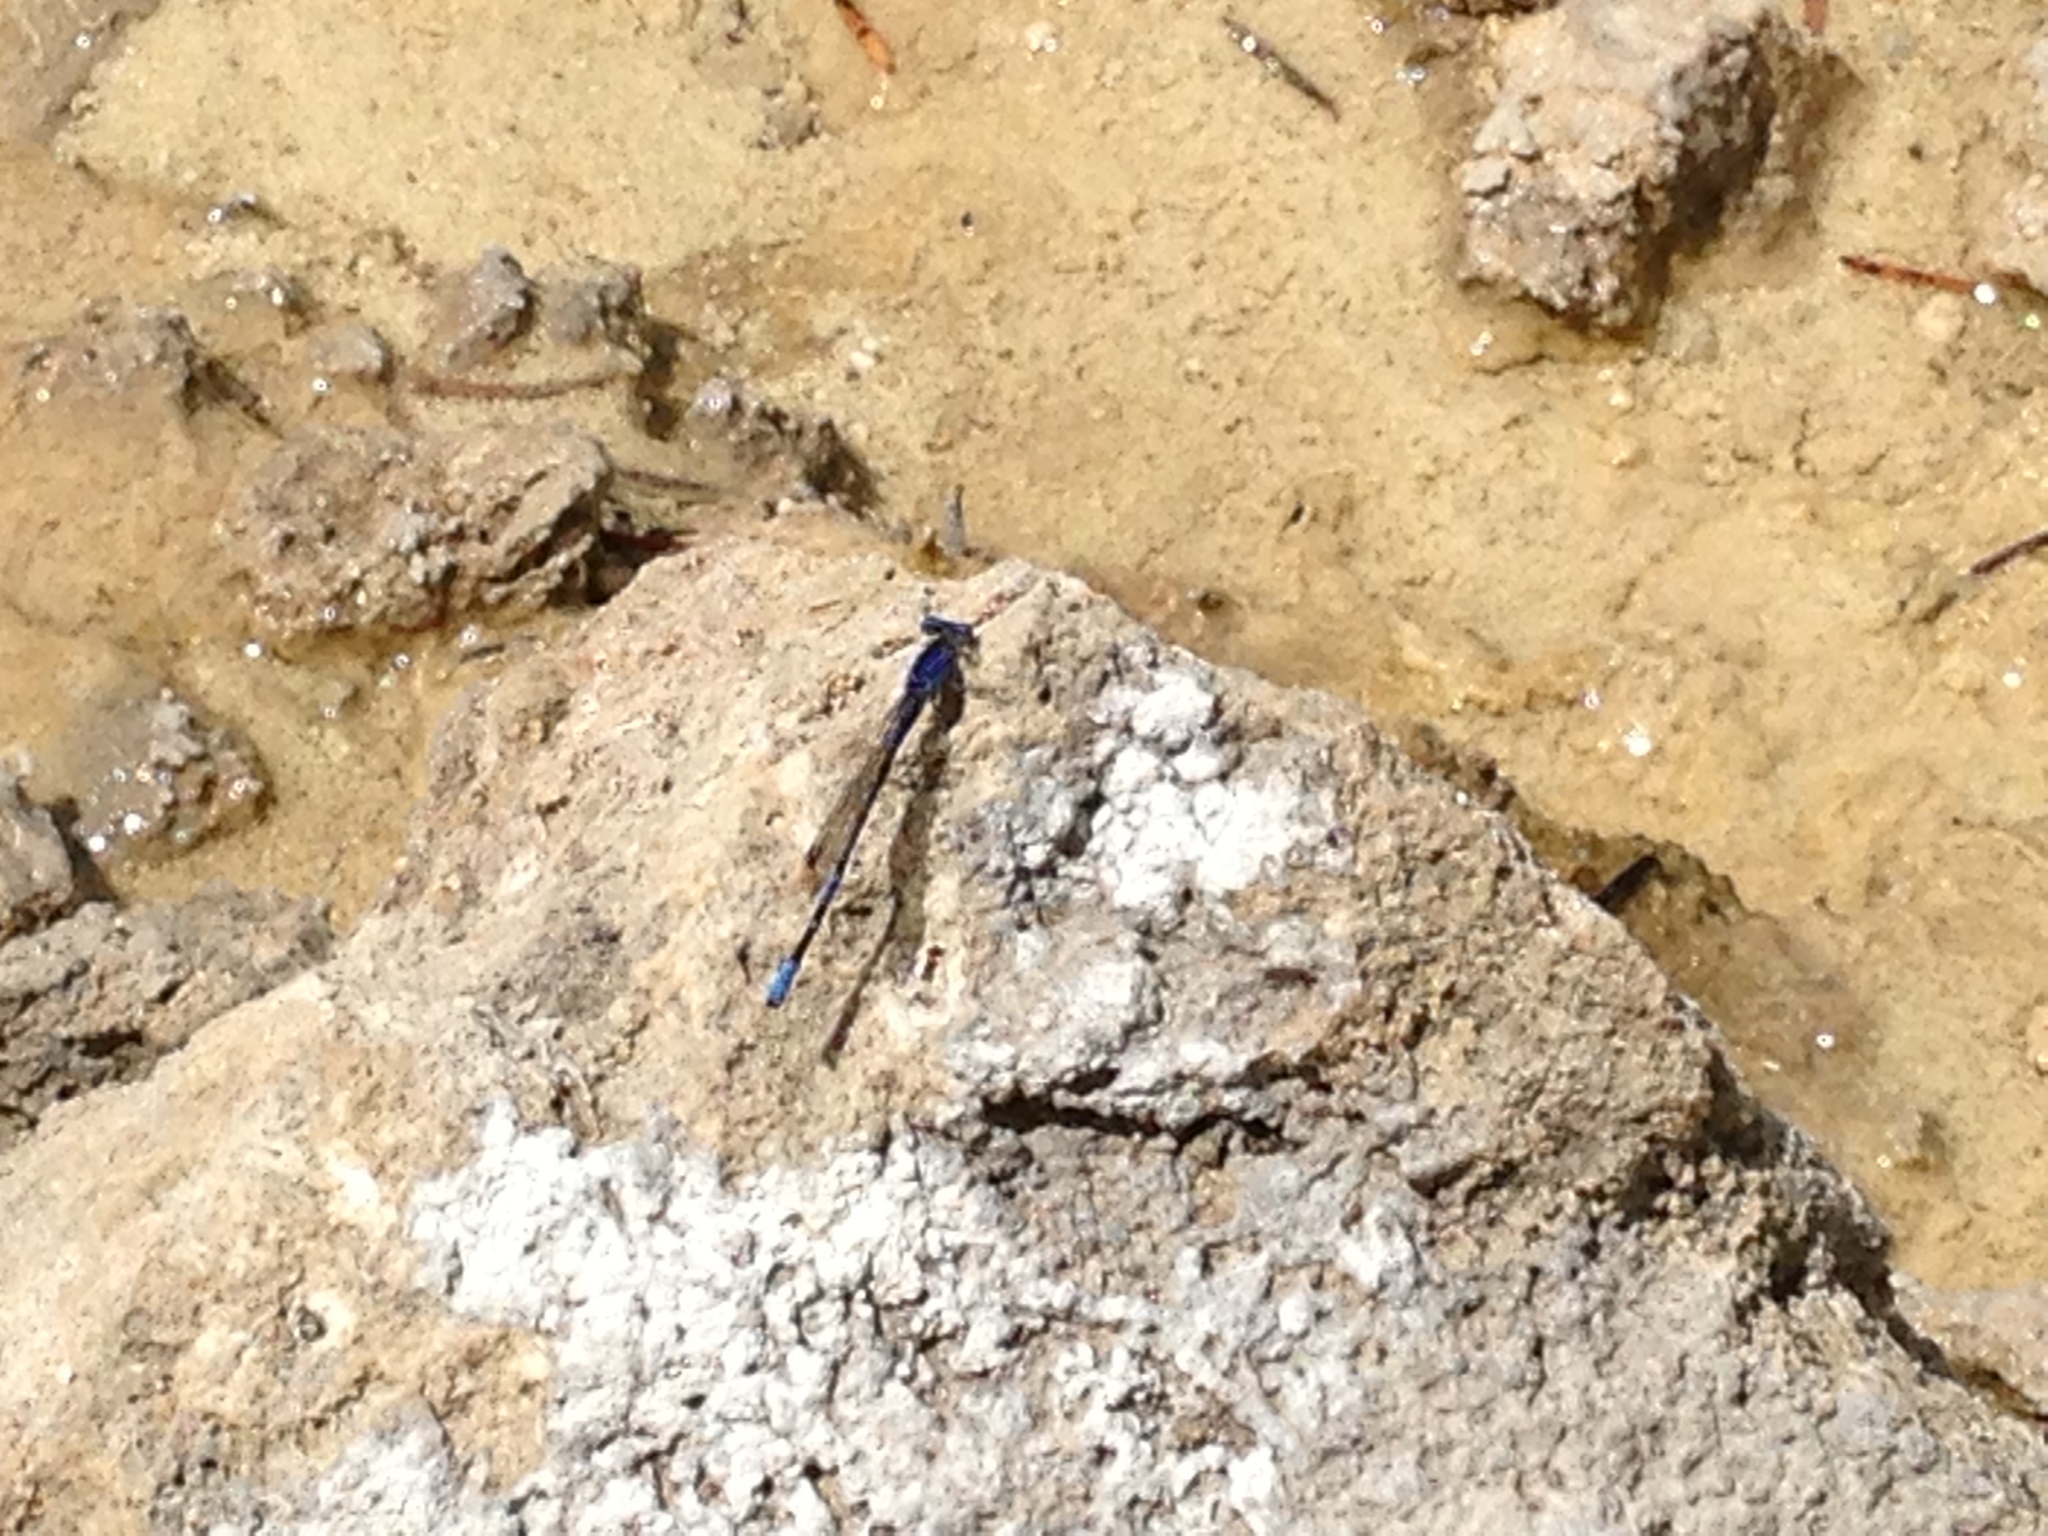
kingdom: Animalia
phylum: Arthropoda
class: Insecta
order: Odonata
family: Coenagrionidae
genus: Argia
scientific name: Argia vivida
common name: Vivid dancer
